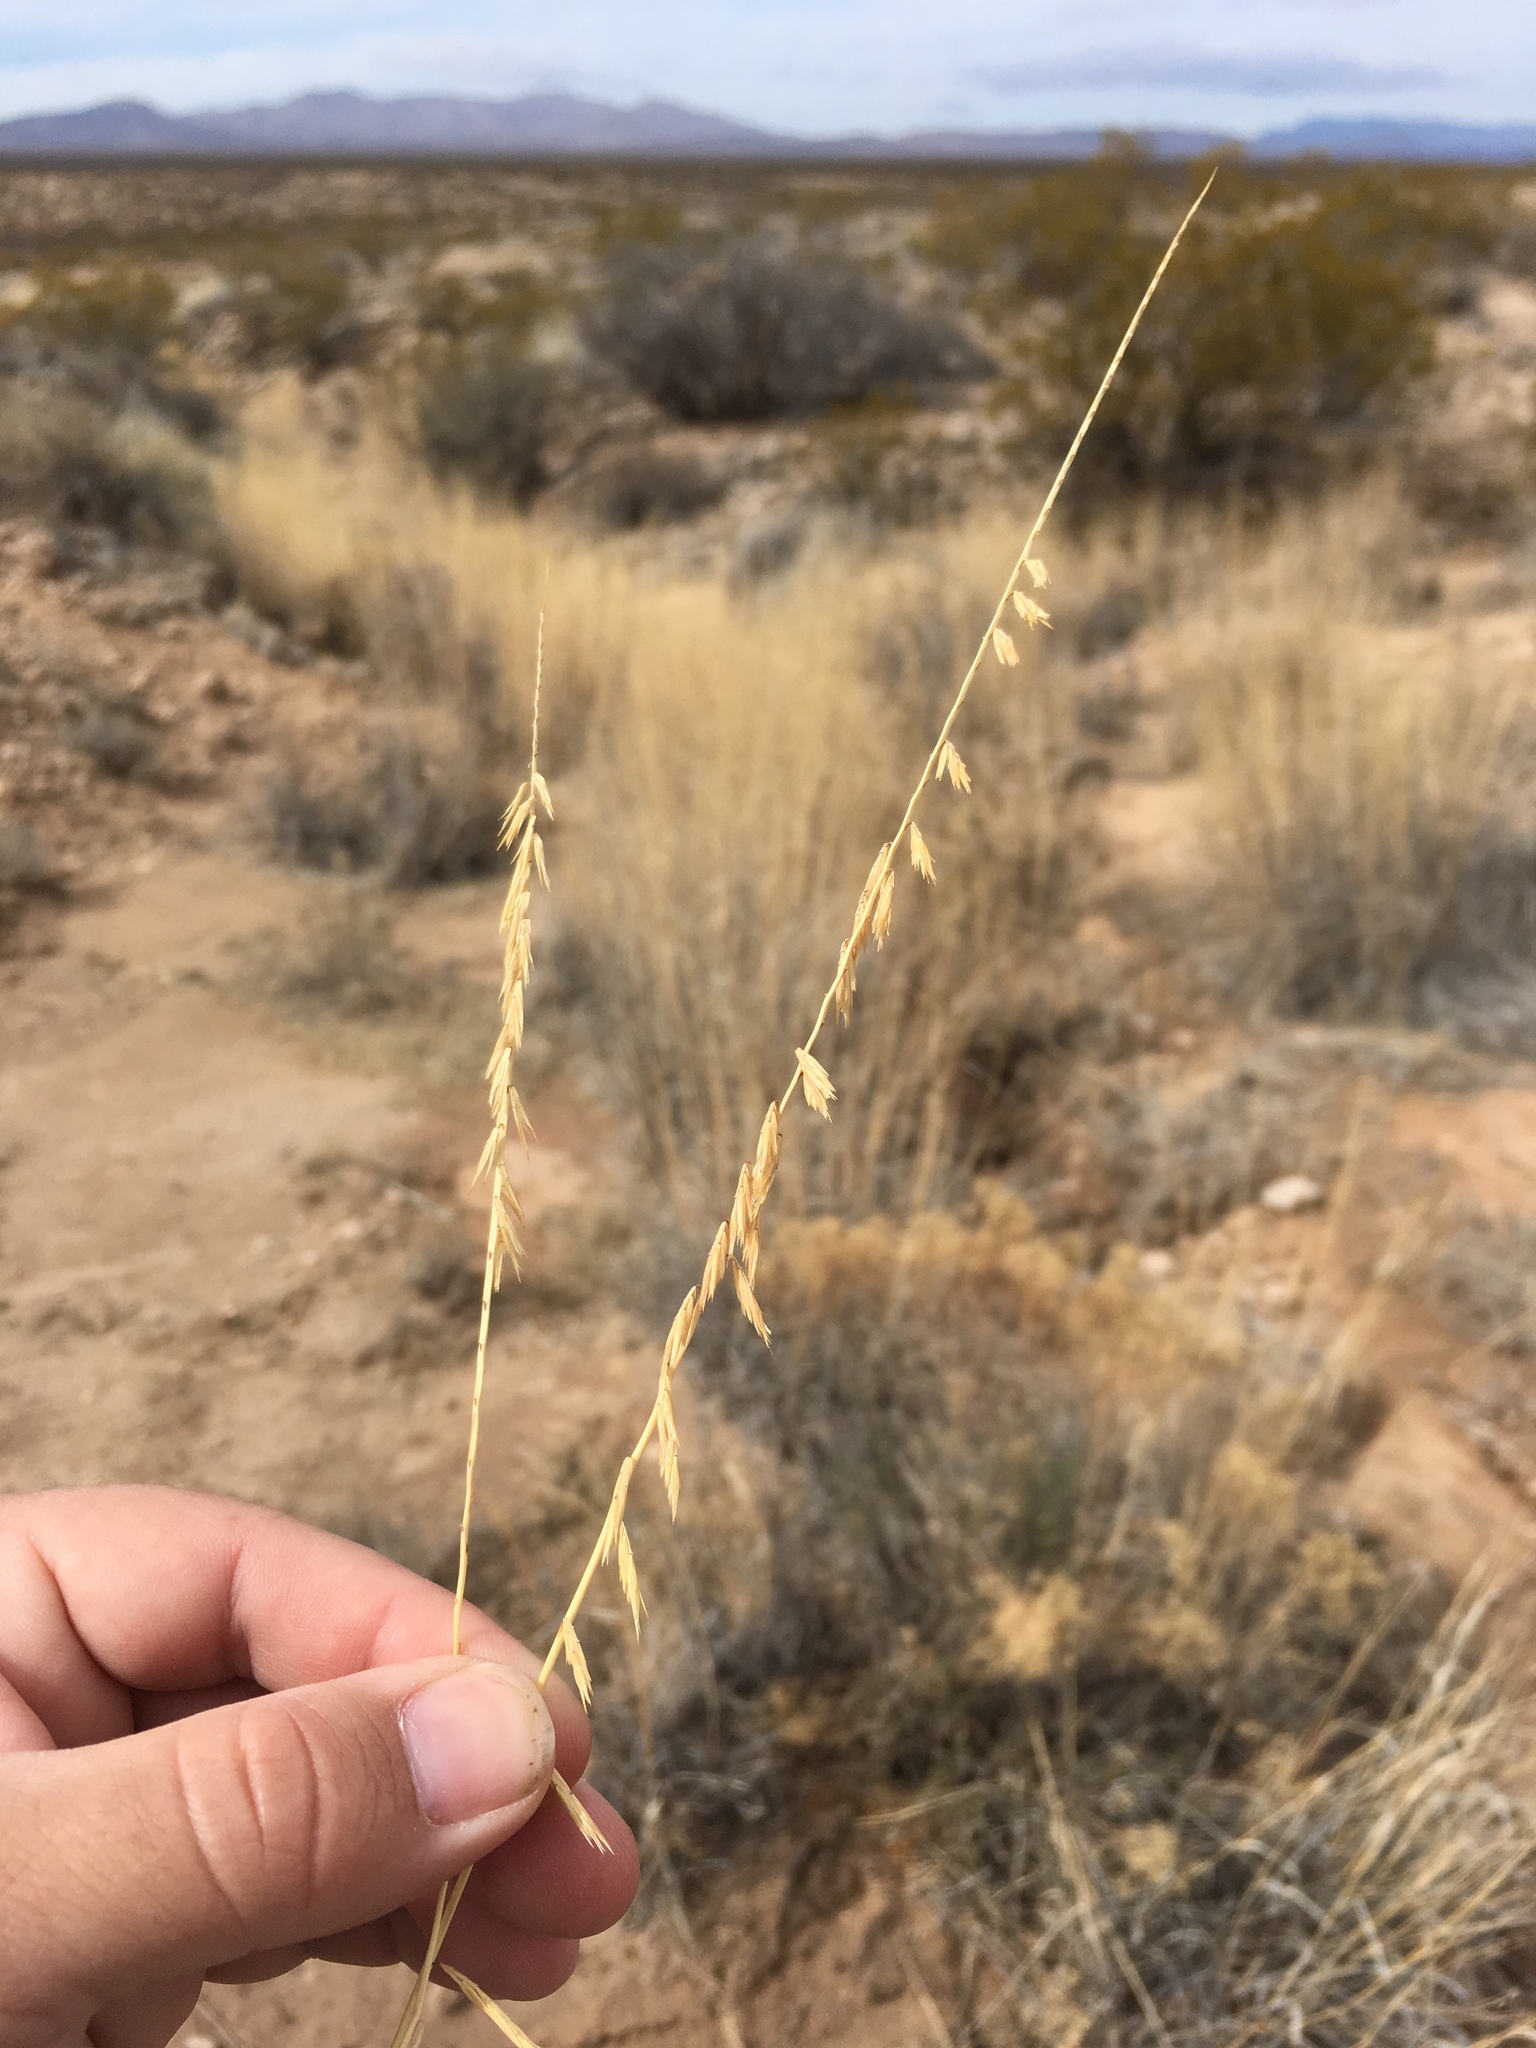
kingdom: Plantae
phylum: Tracheophyta
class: Liliopsida
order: Poales
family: Poaceae
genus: Bouteloua
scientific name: Bouteloua curtipendula
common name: Side-oats grama
